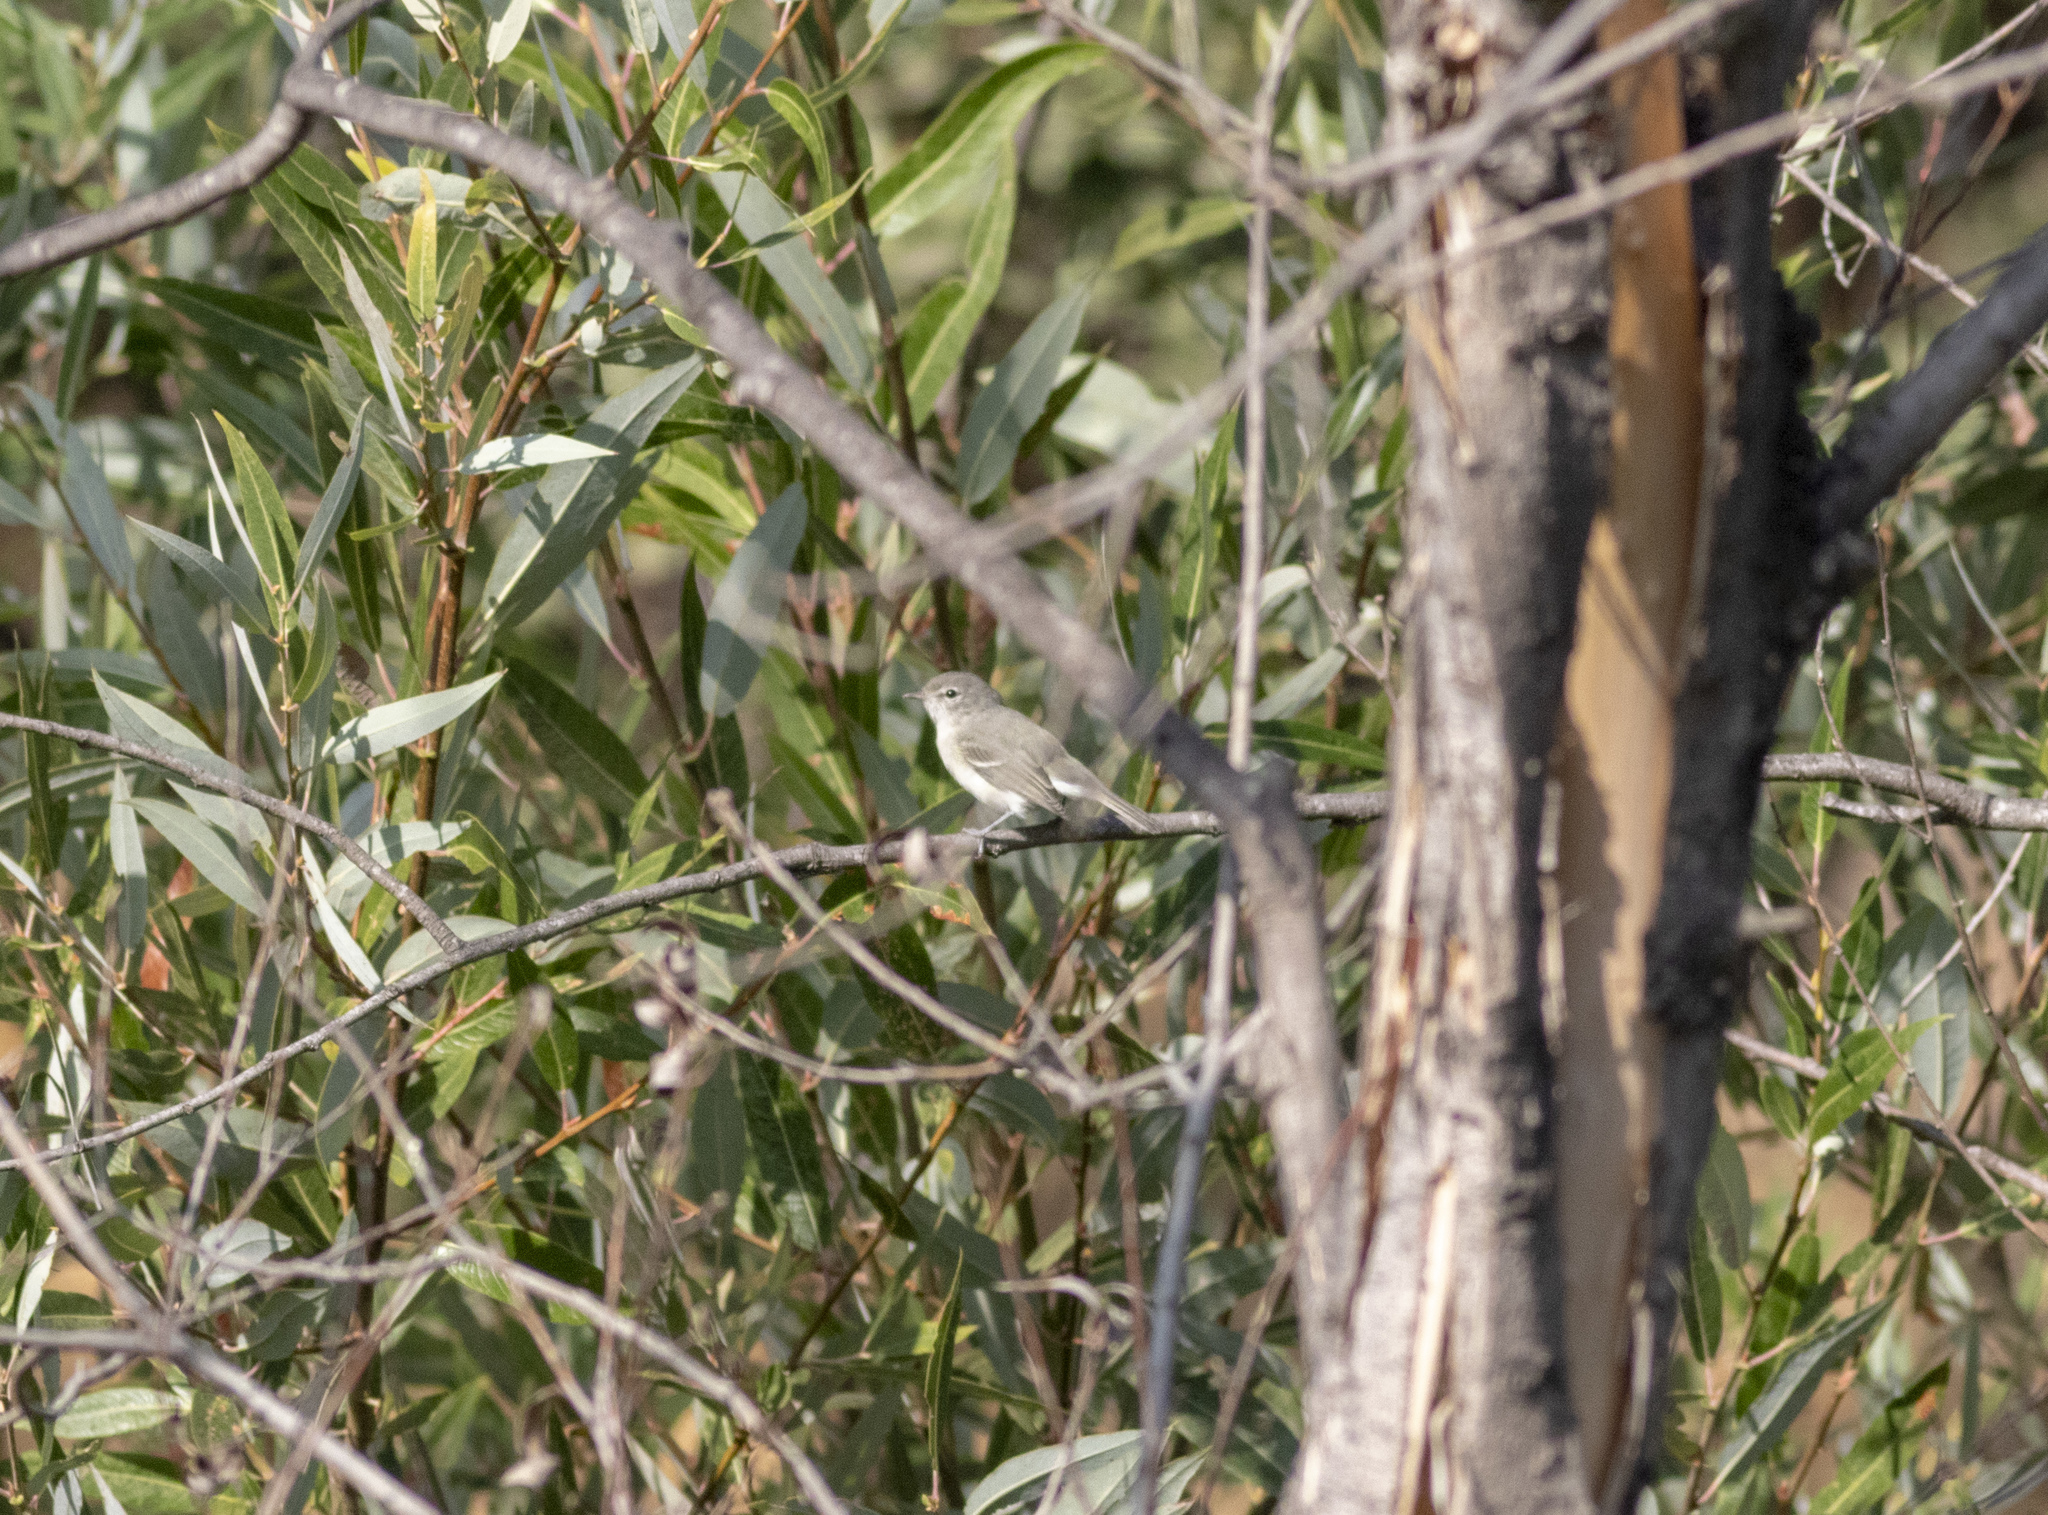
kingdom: Animalia
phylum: Chordata
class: Aves
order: Passeriformes
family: Vireonidae
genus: Vireo
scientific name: Vireo bellii
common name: Bell's vireo
